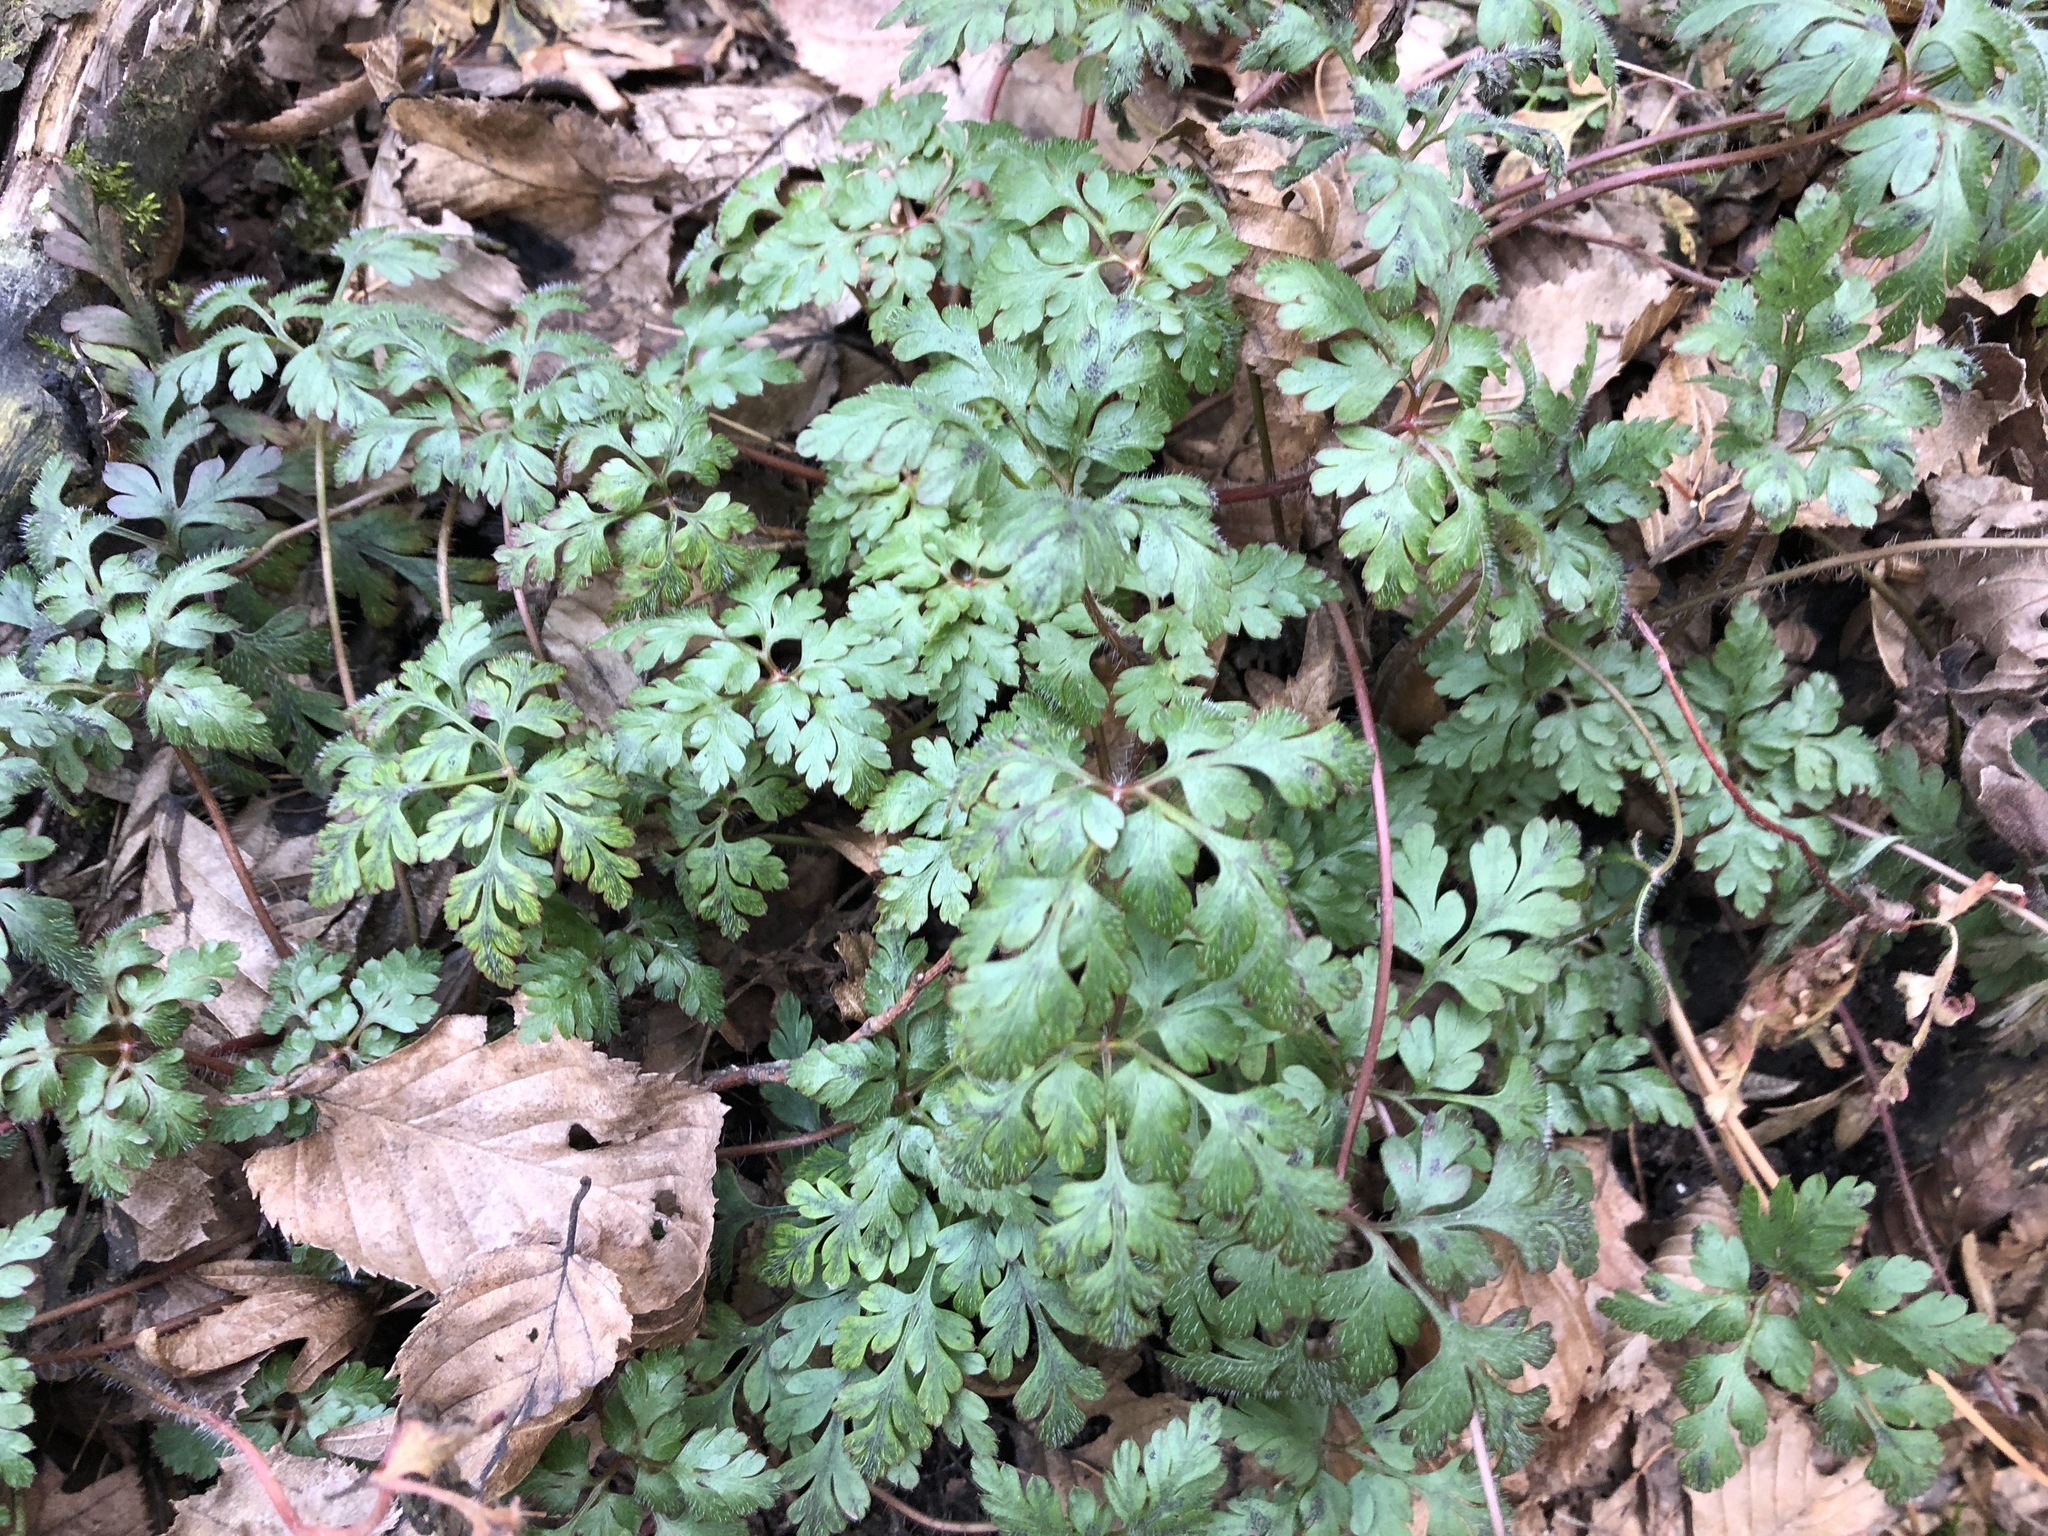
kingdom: Plantae
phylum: Tracheophyta
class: Magnoliopsida
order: Geraniales
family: Geraniaceae
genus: Geranium
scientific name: Geranium robertianum
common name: Herb-robert
